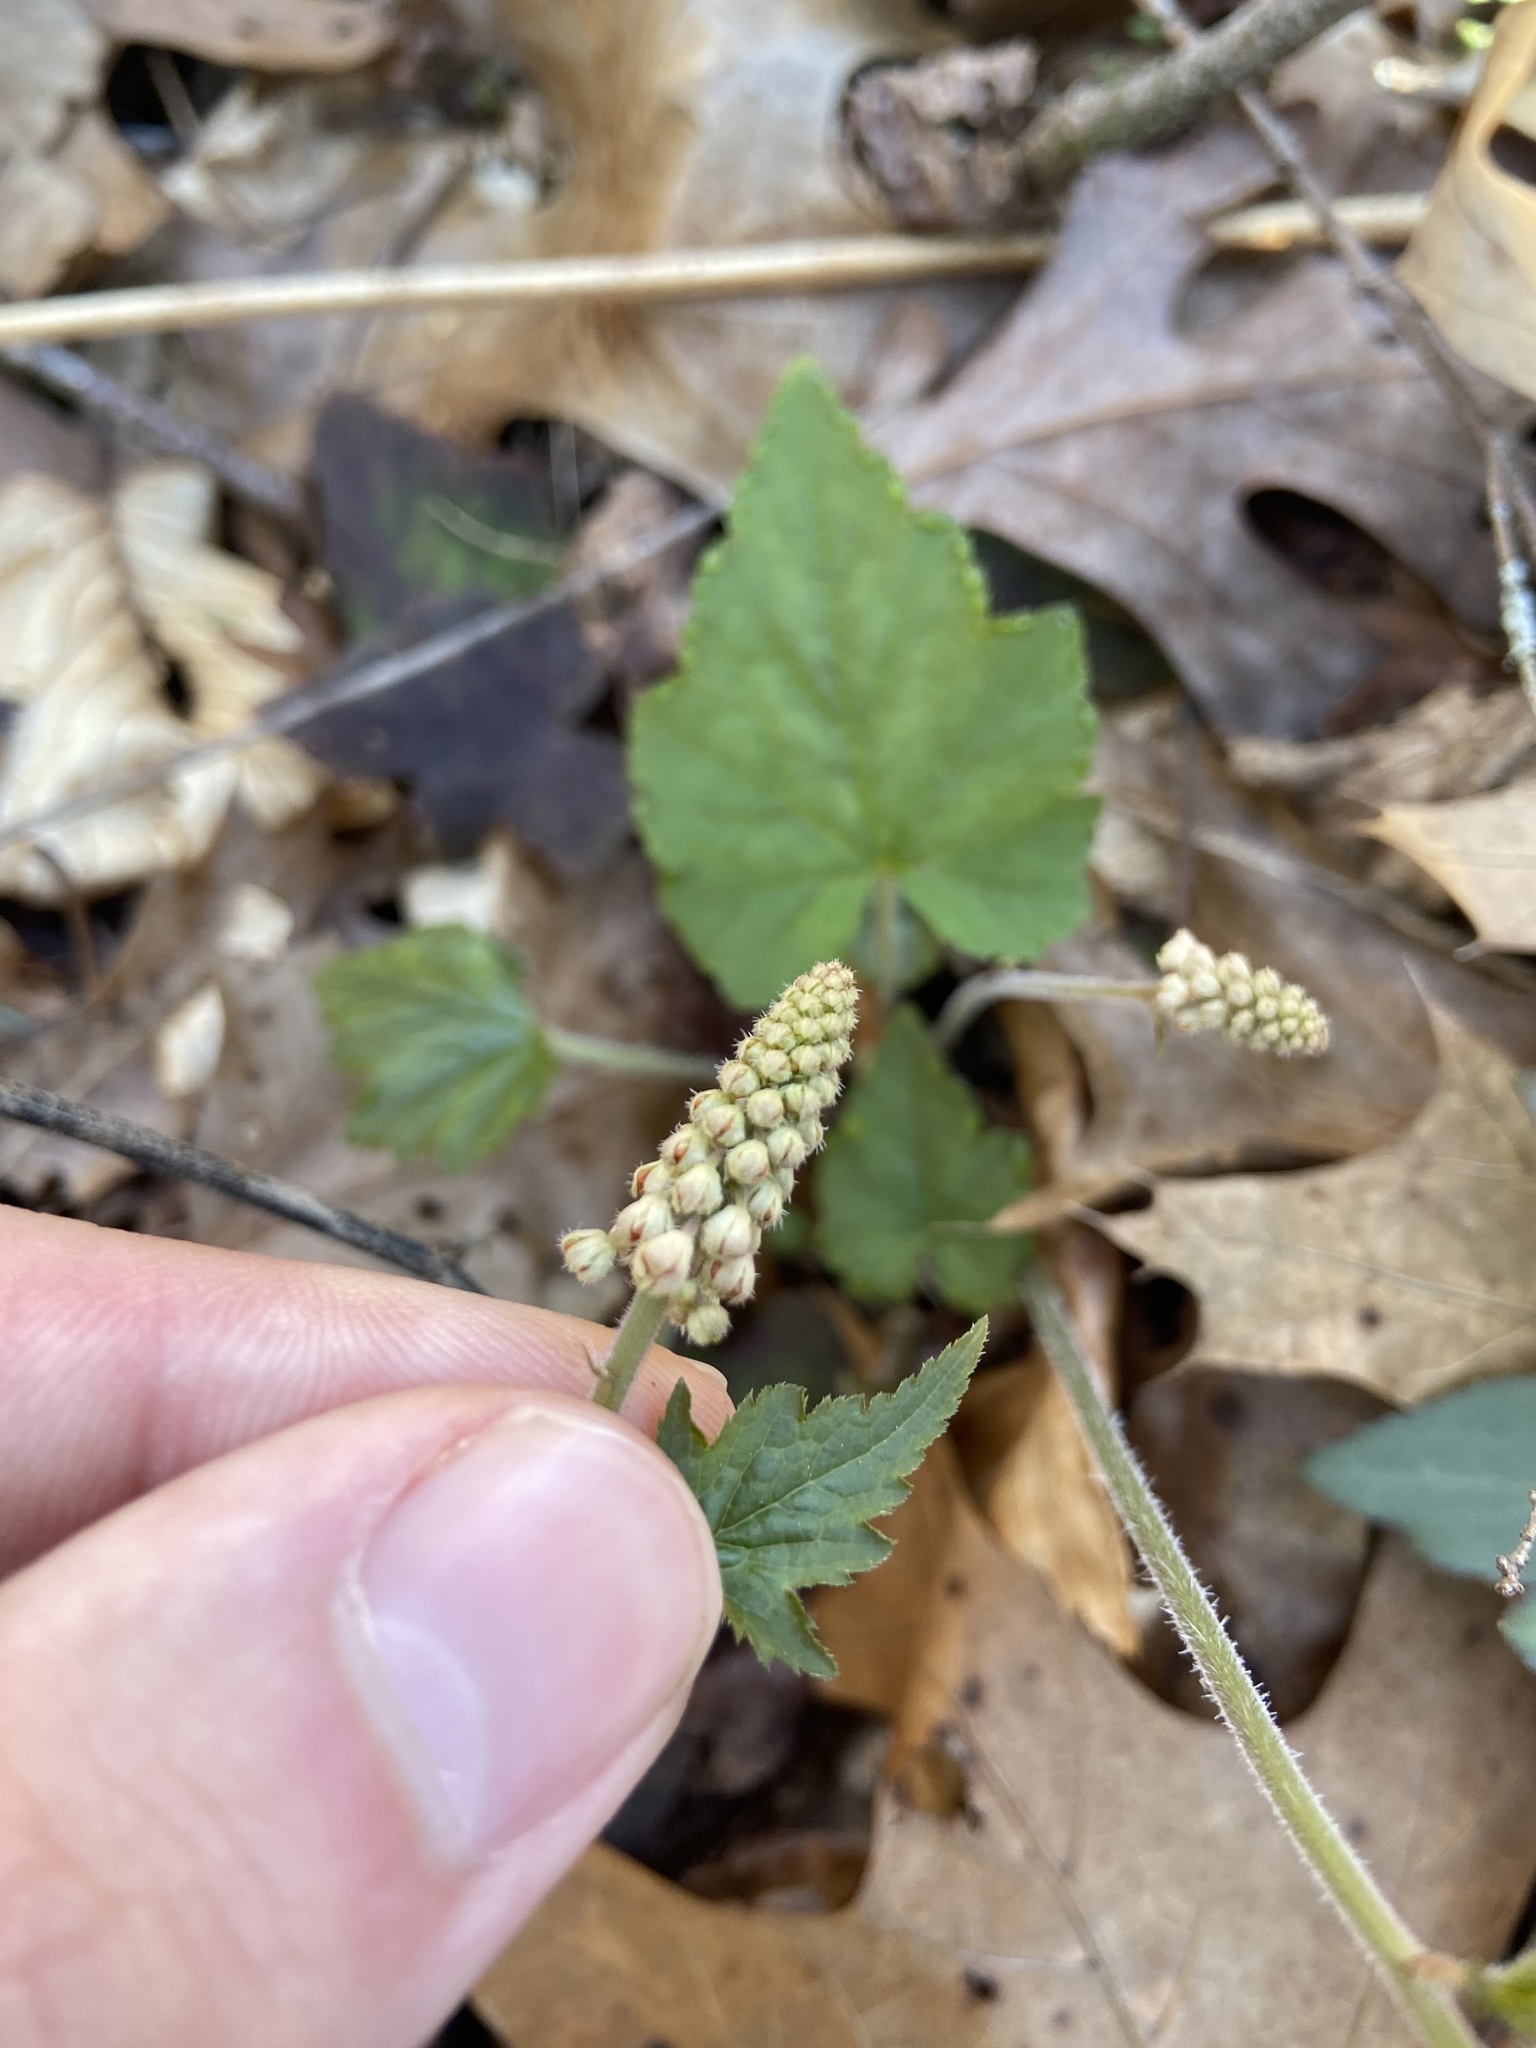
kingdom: Plantae
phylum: Tracheophyta
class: Magnoliopsida
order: Saxifragales
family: Saxifragaceae
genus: Tiarella
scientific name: Tiarella austrina
